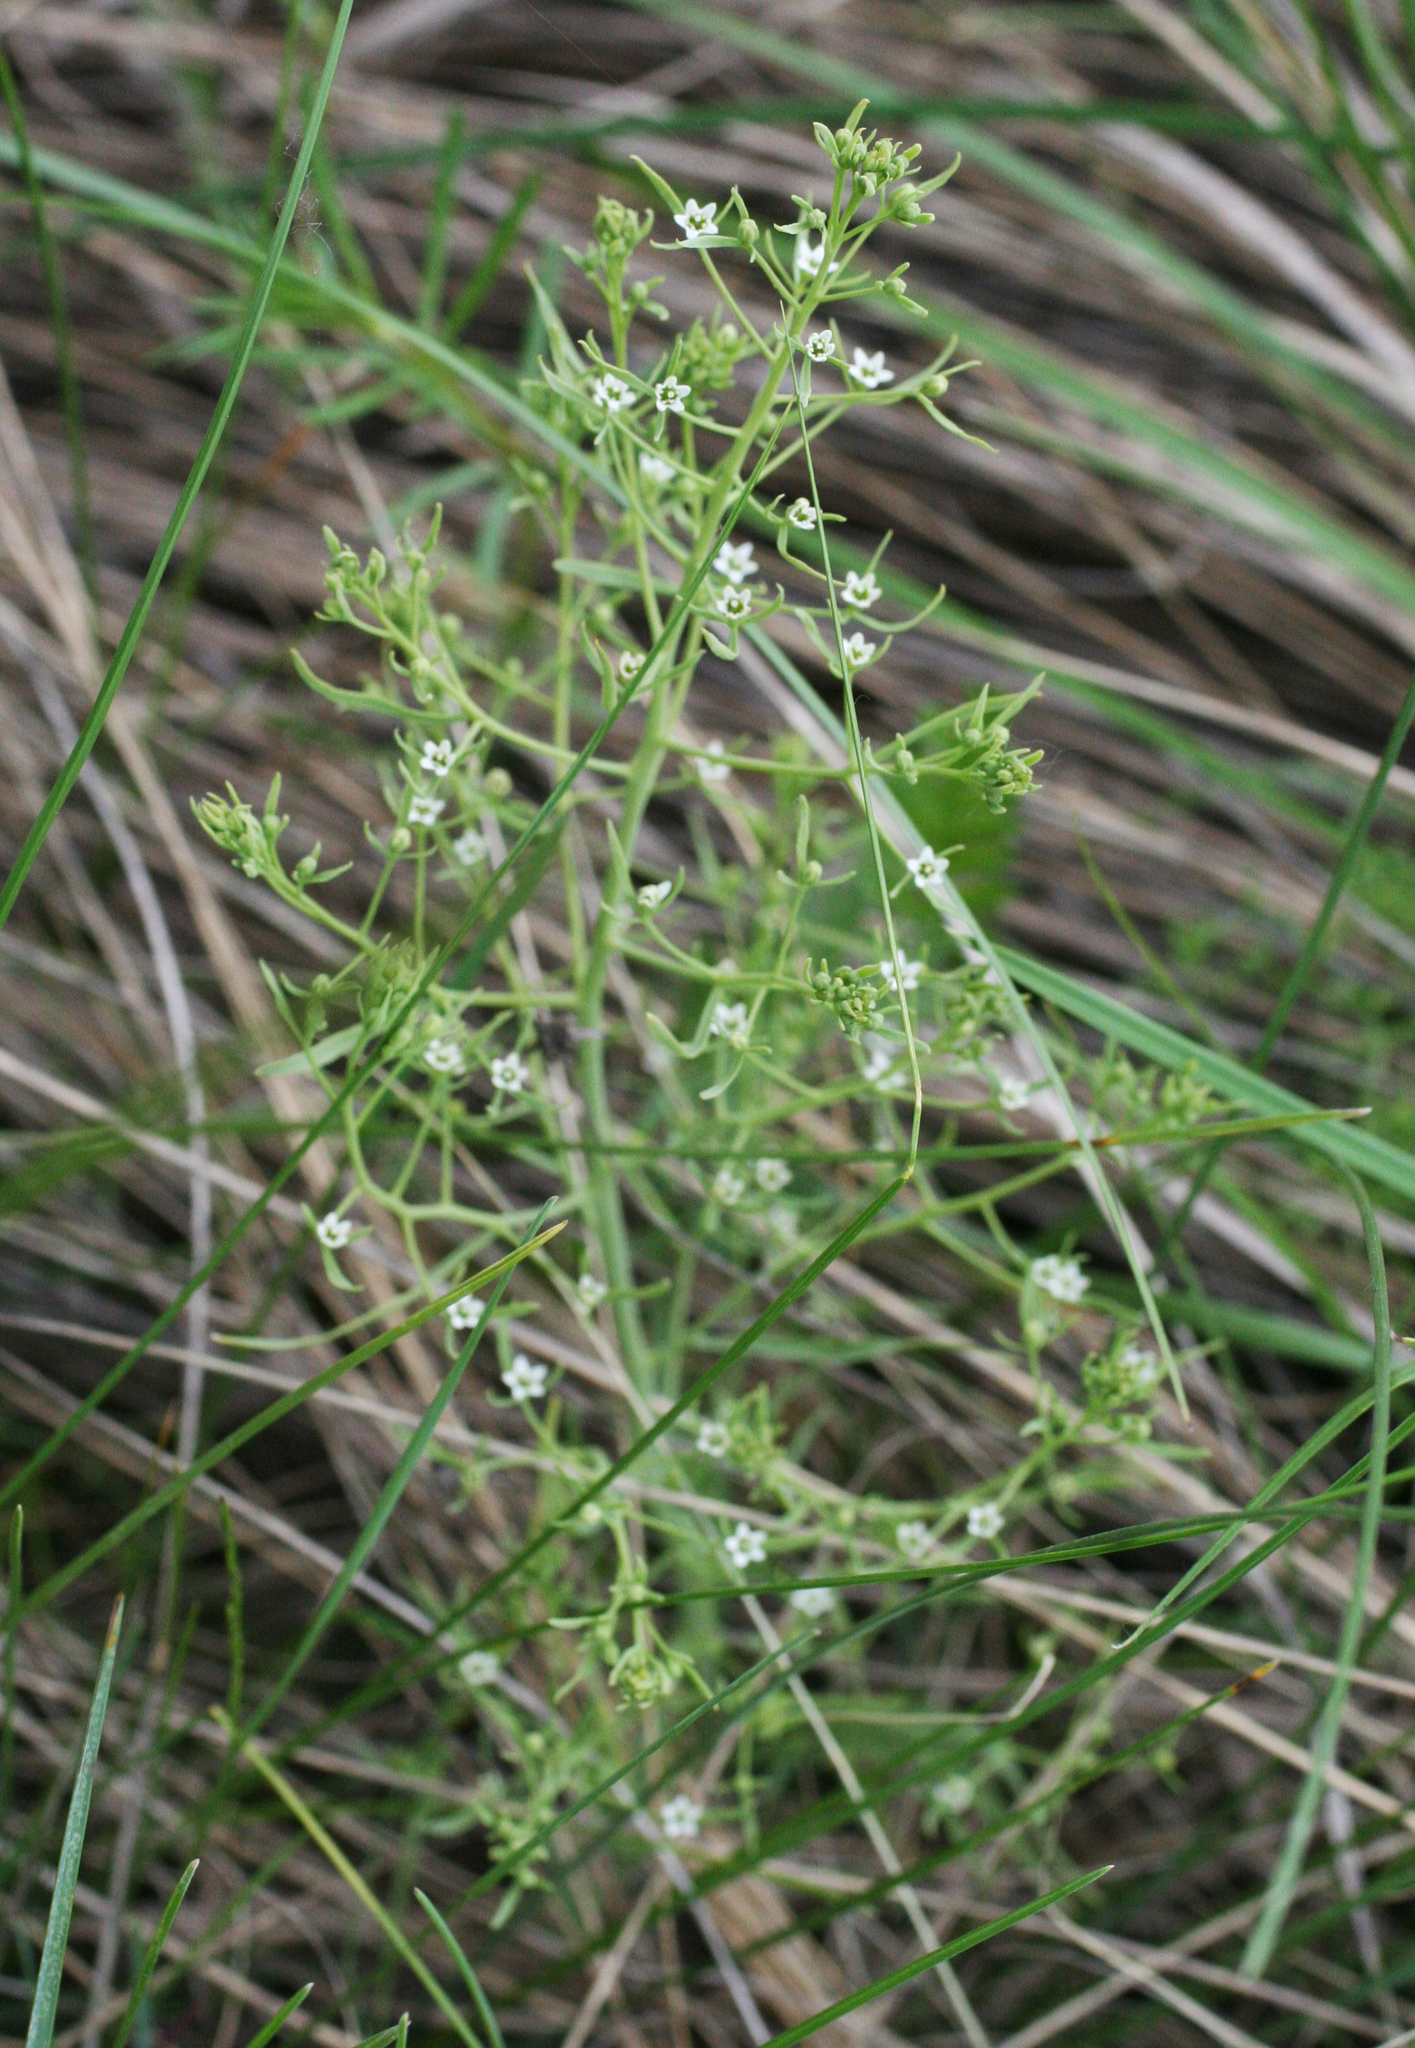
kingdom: Plantae
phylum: Tracheophyta
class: Magnoliopsida
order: Santalales
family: Thesiaceae
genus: Thesium
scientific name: Thesium refractum
